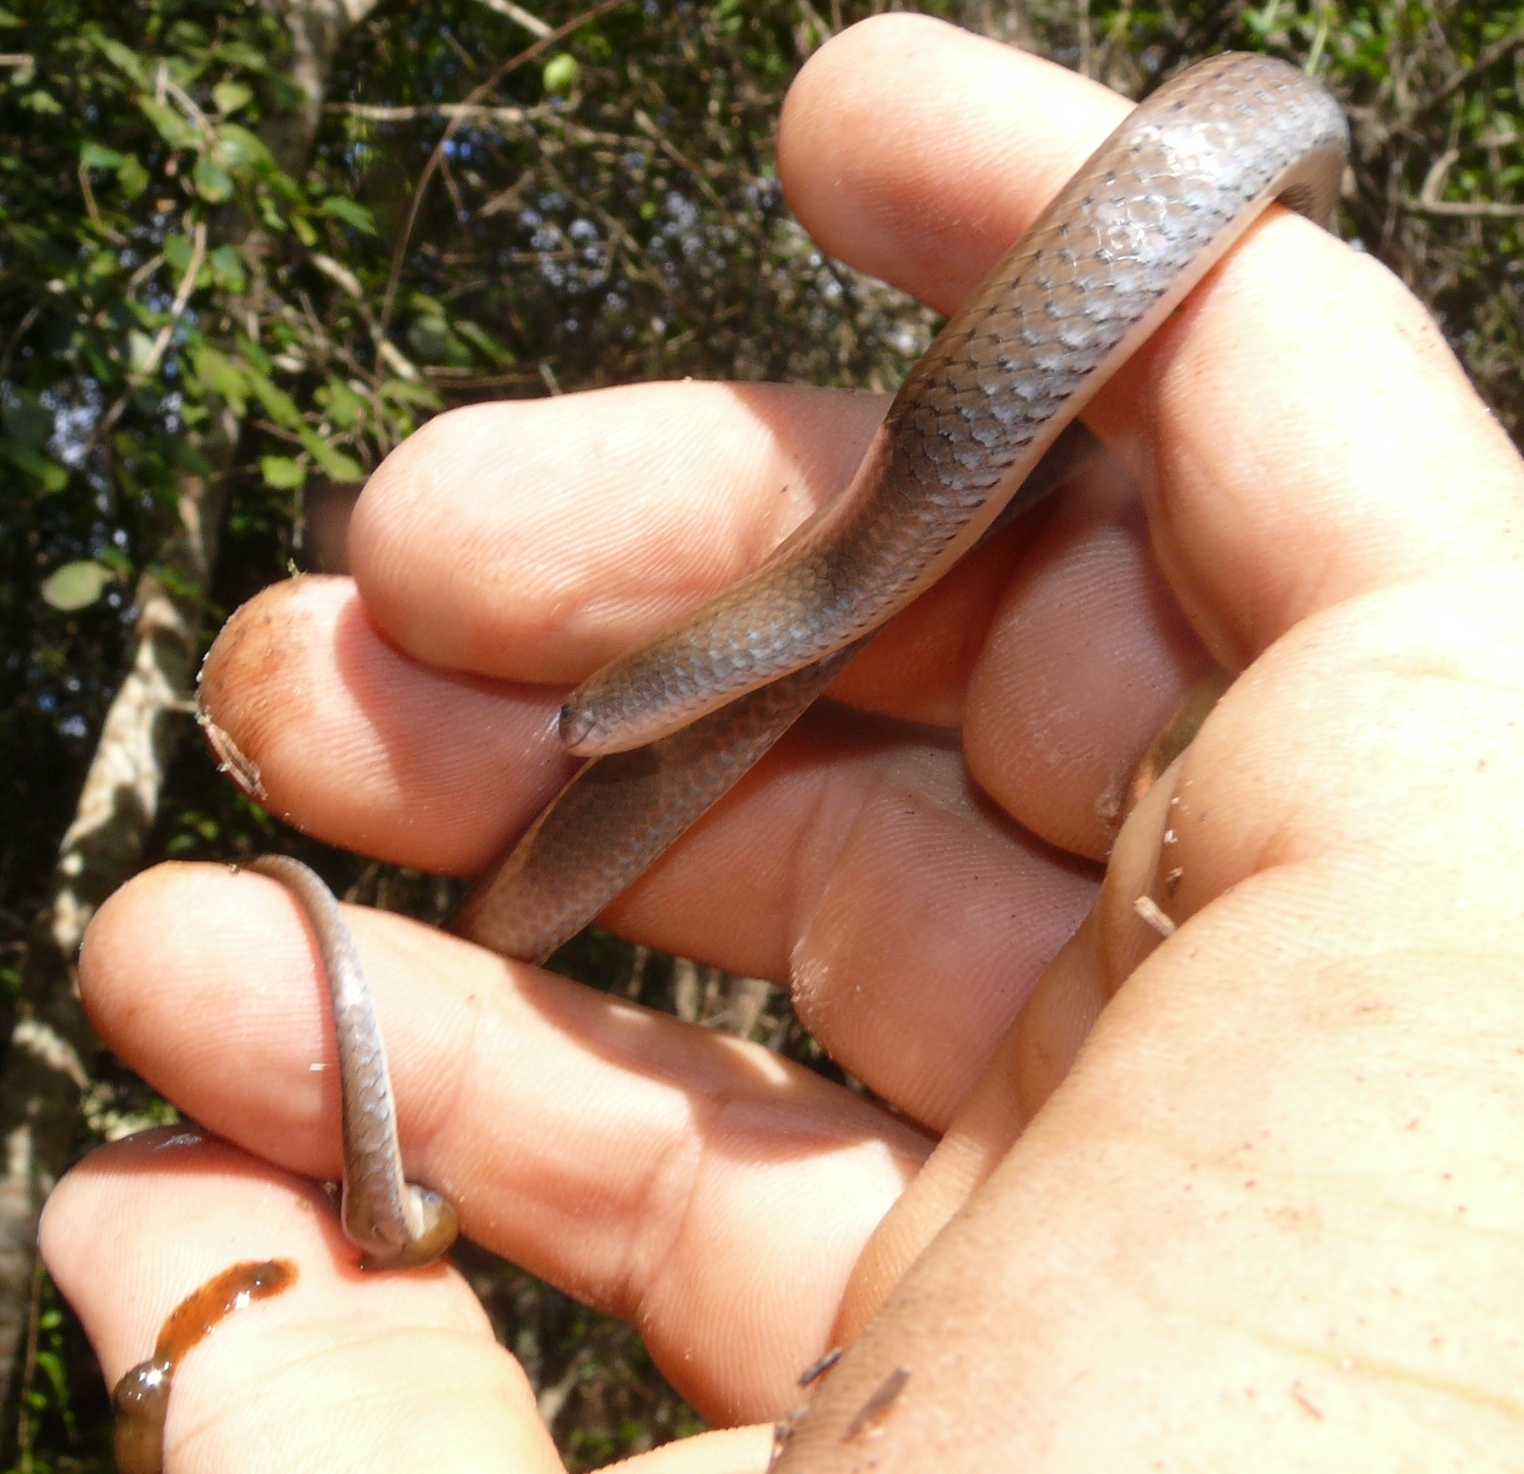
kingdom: Animalia
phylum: Chordata
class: Squamata
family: Pseudoxyrhophiidae
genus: Duberria
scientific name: Duberria lutrix
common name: Common slug eater
